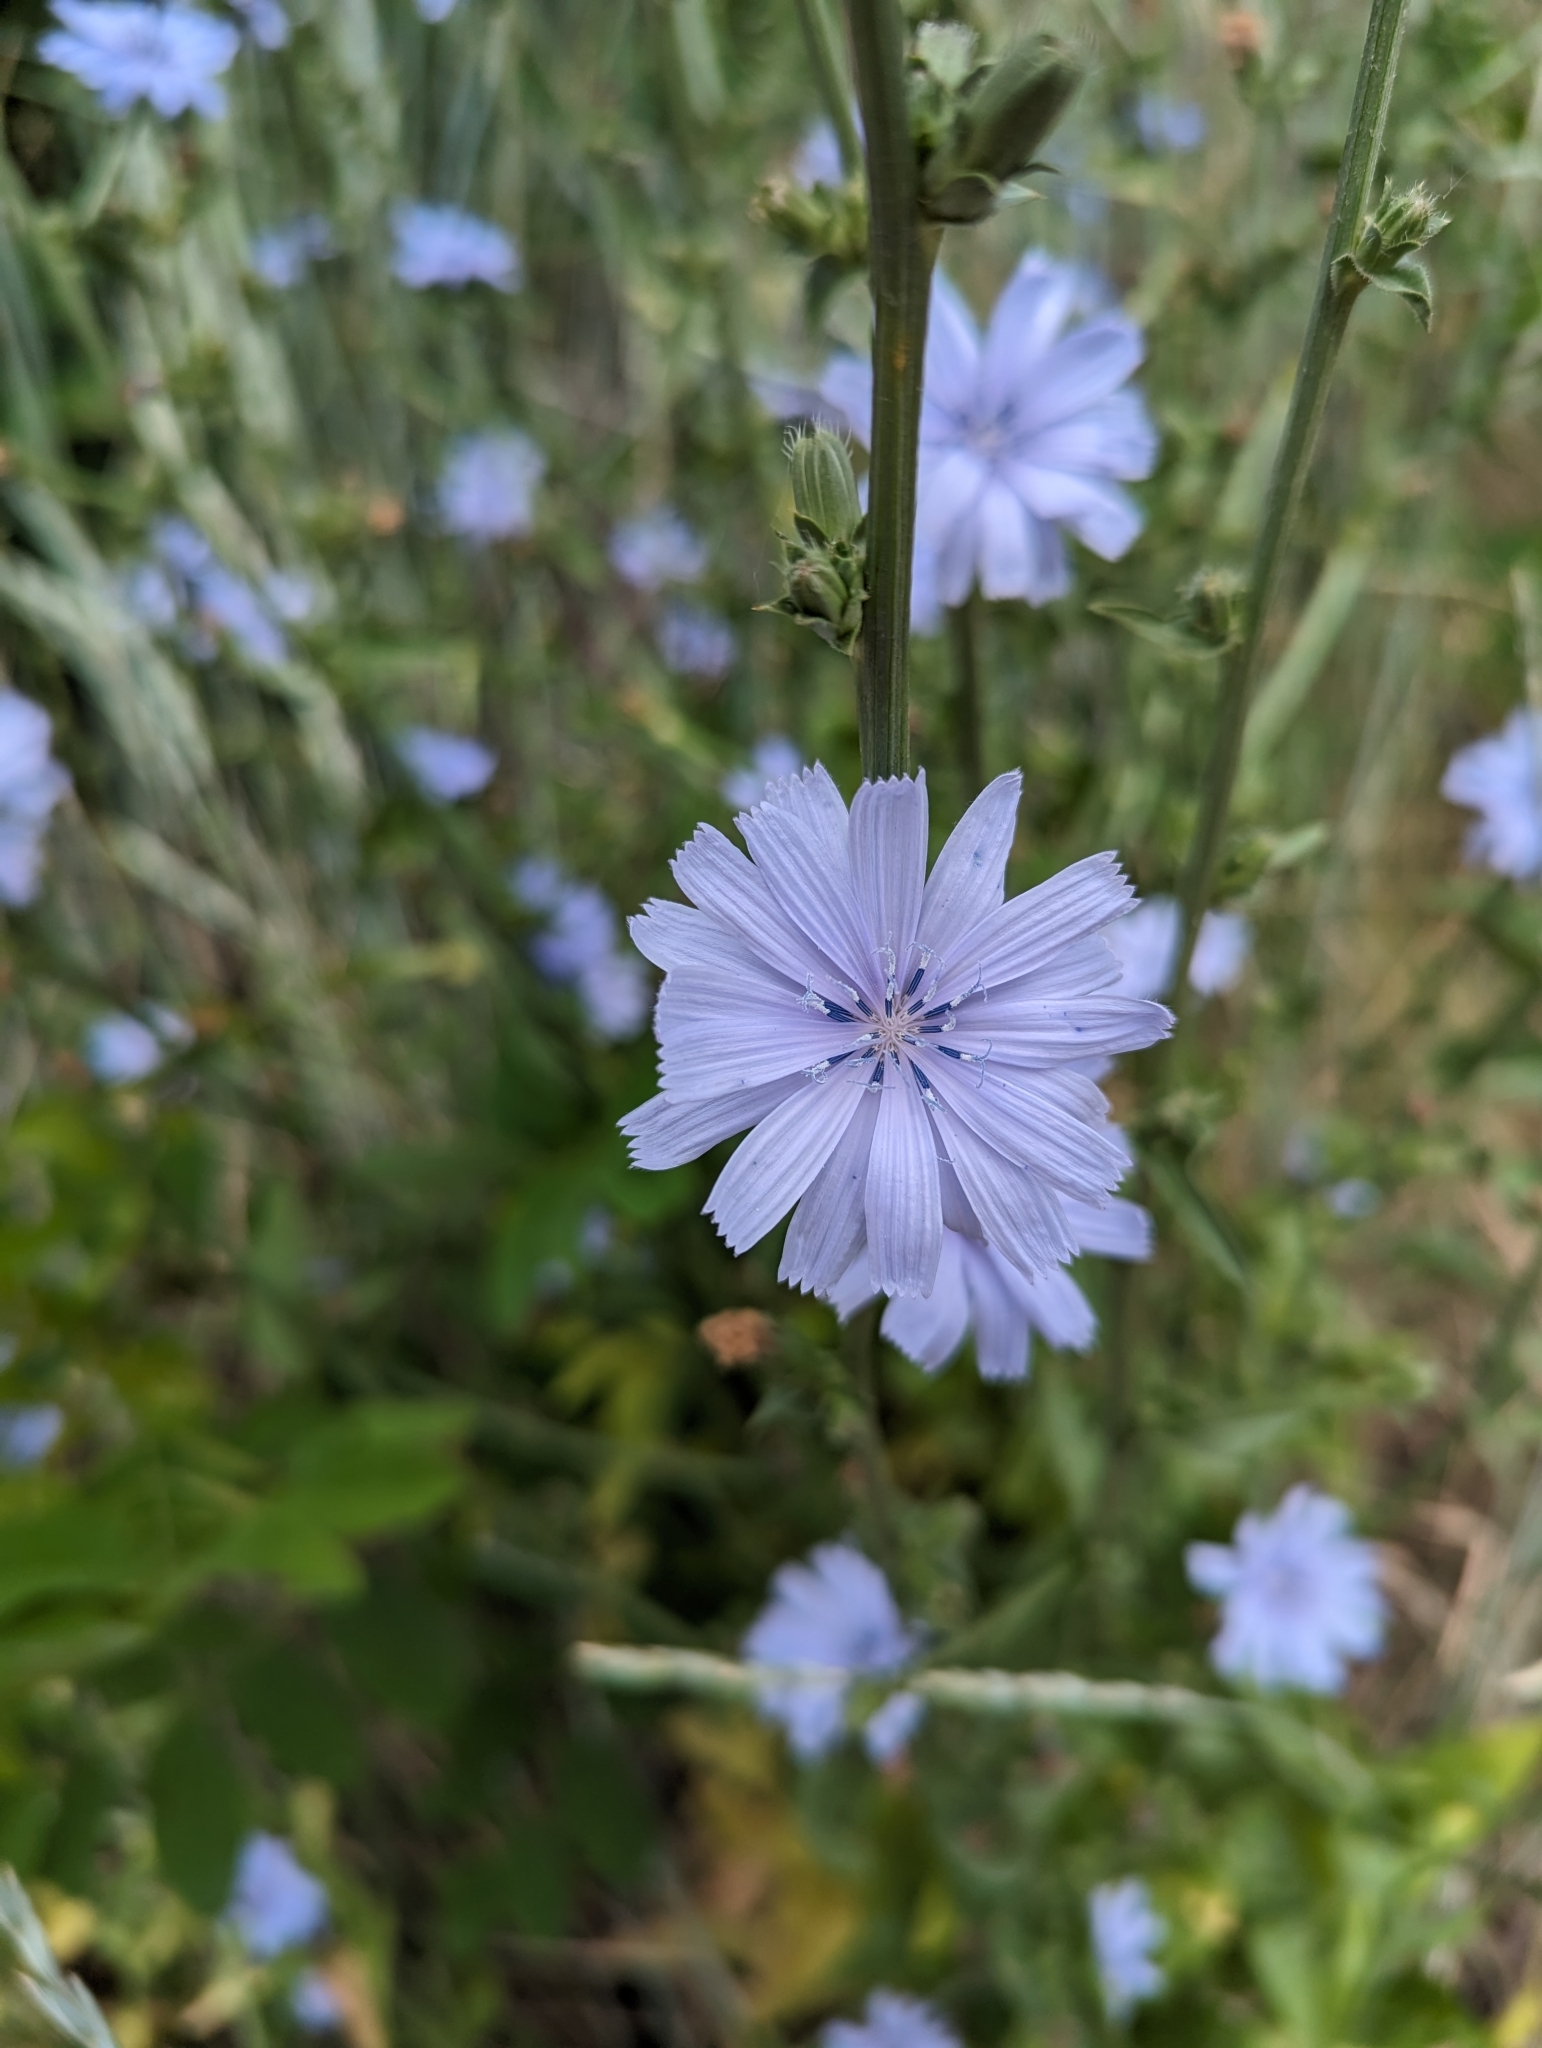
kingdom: Plantae
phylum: Tracheophyta
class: Magnoliopsida
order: Asterales
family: Asteraceae
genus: Cichorium
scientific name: Cichorium intybus
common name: Chicory
